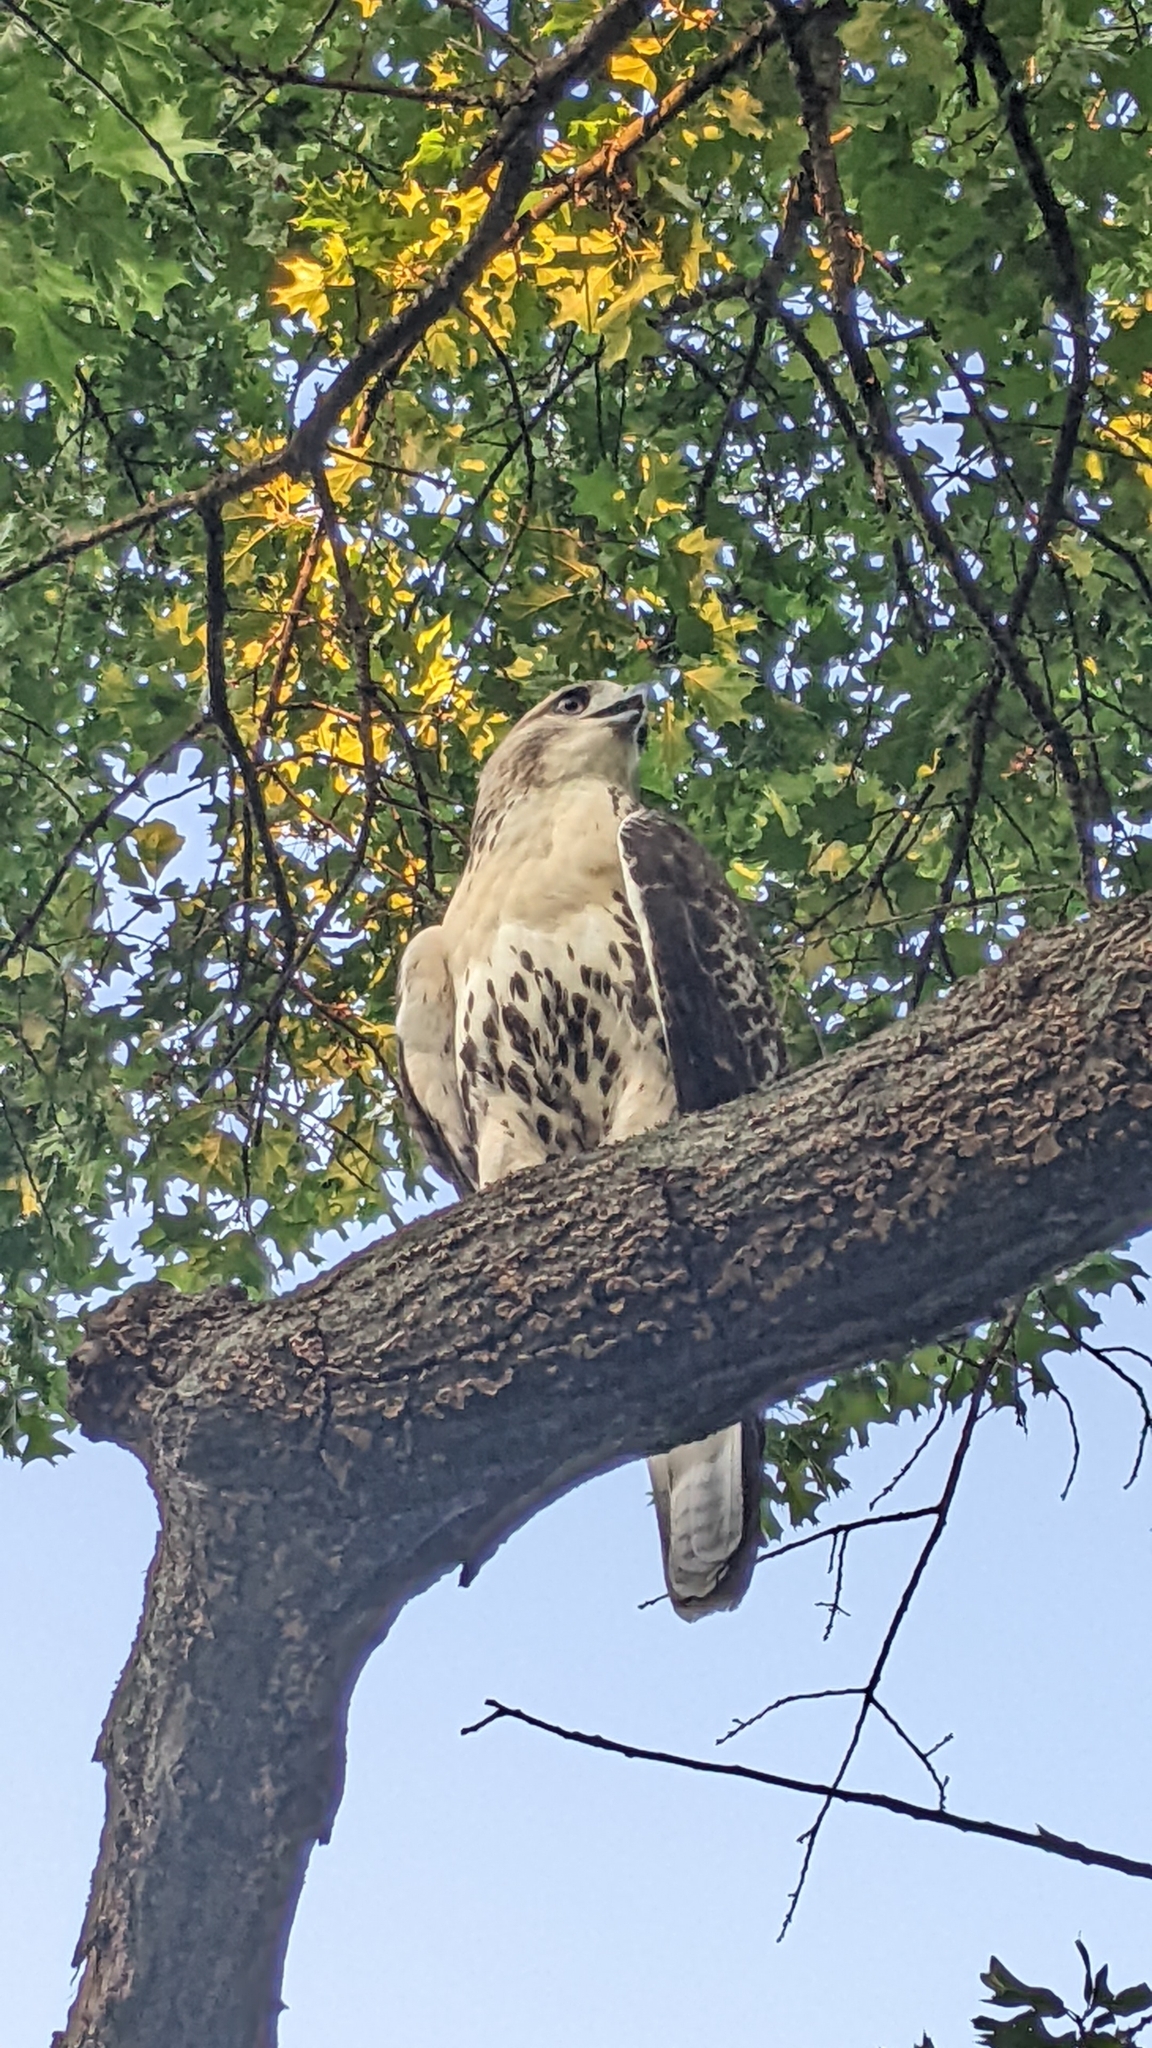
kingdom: Animalia
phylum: Chordata
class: Aves
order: Accipitriformes
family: Accipitridae
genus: Buteo
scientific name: Buteo jamaicensis
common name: Red-tailed hawk
